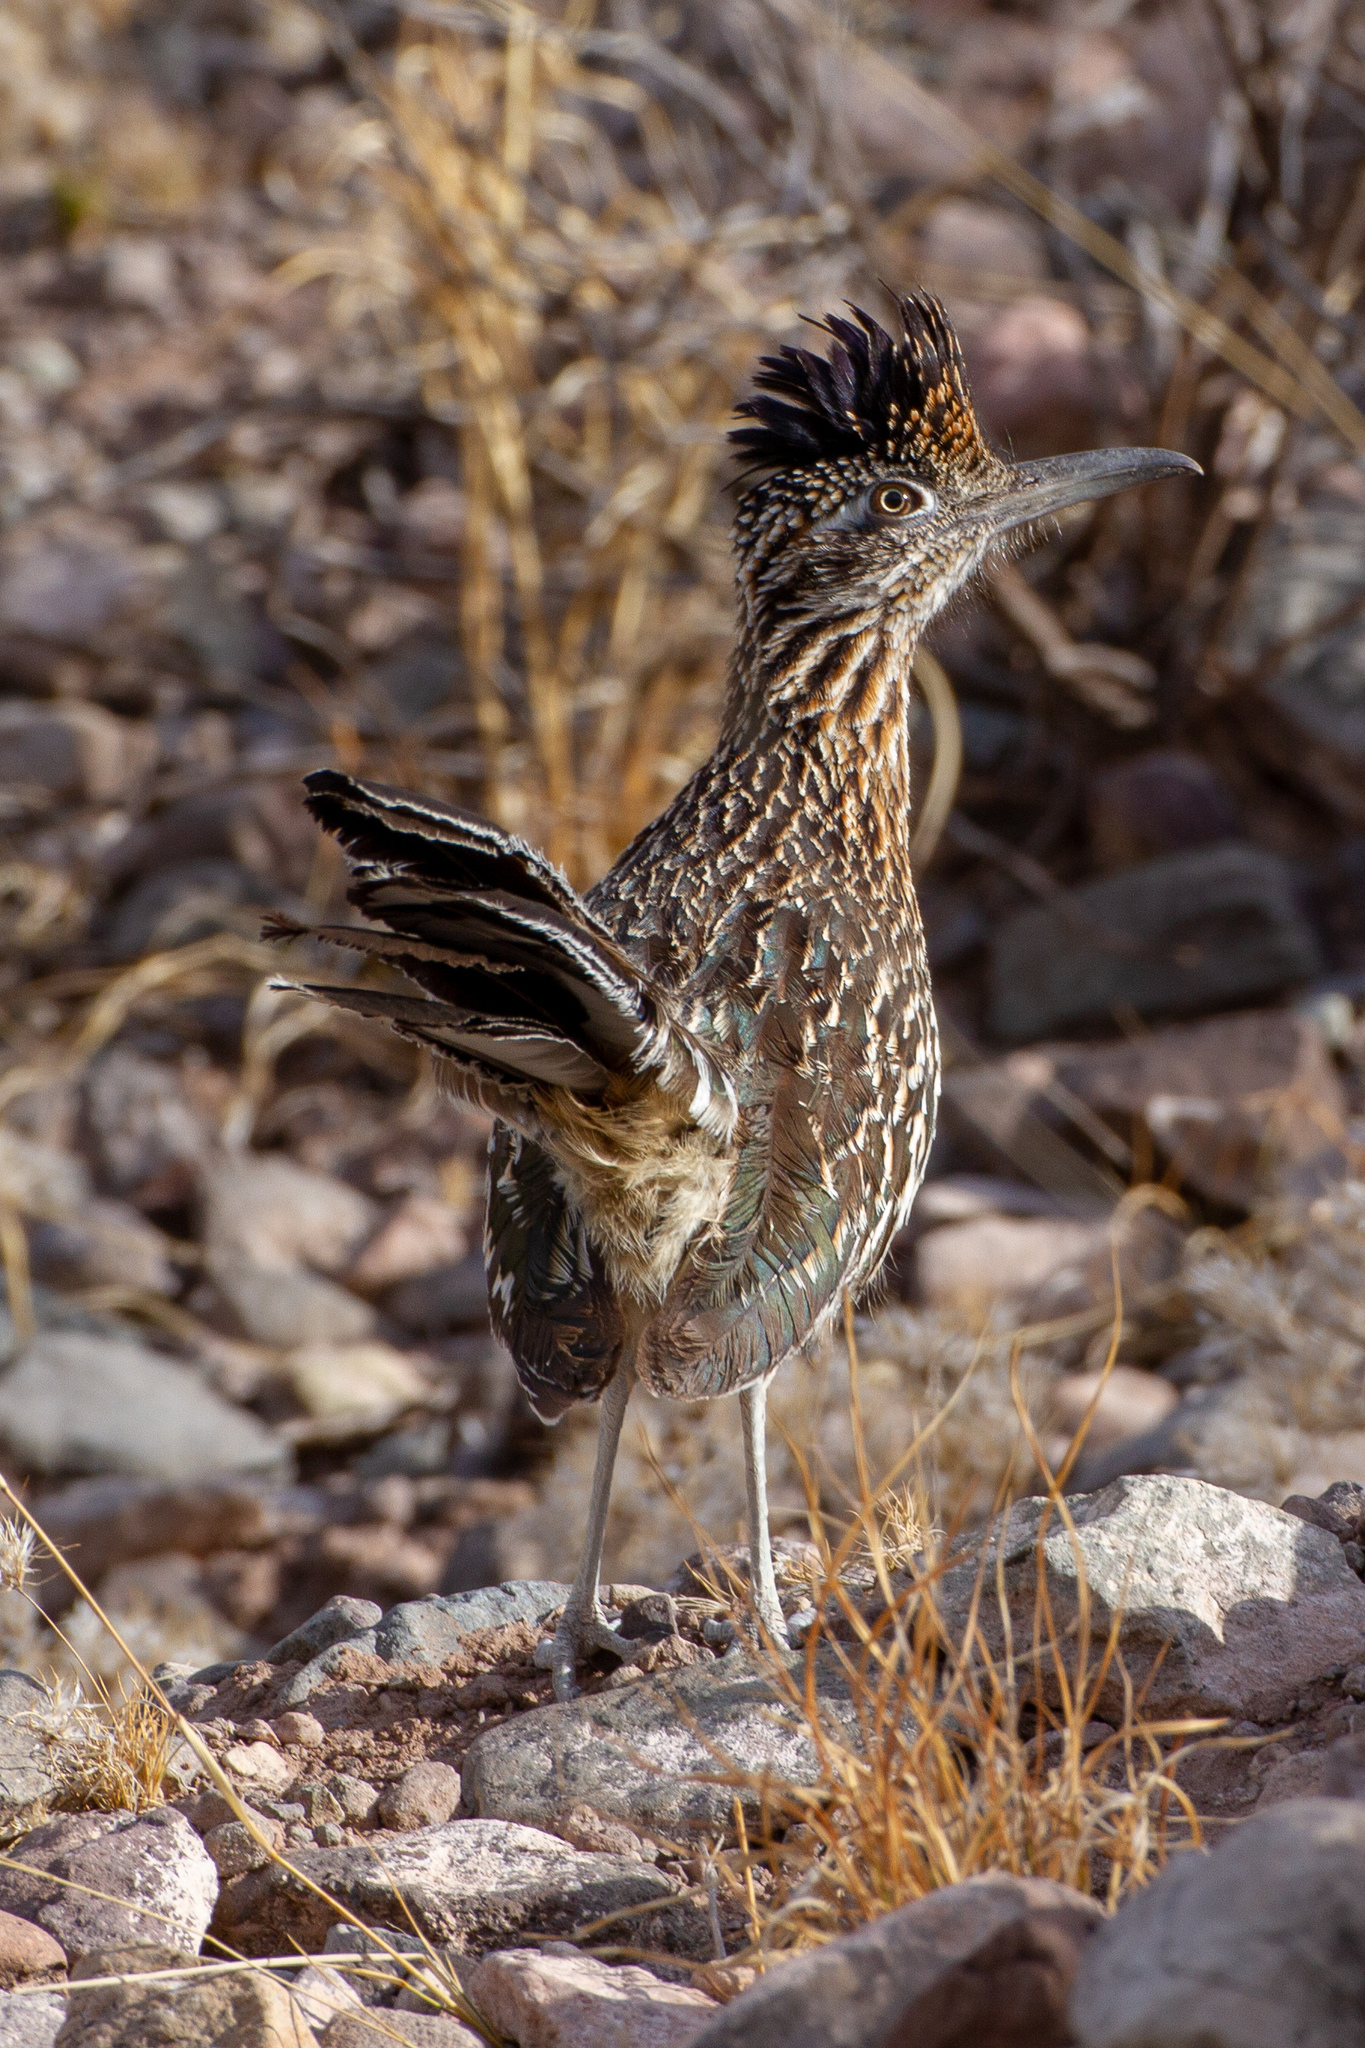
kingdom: Animalia
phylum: Chordata
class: Aves
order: Cuculiformes
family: Cuculidae
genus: Geococcyx
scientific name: Geococcyx californianus
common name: Greater roadrunner
